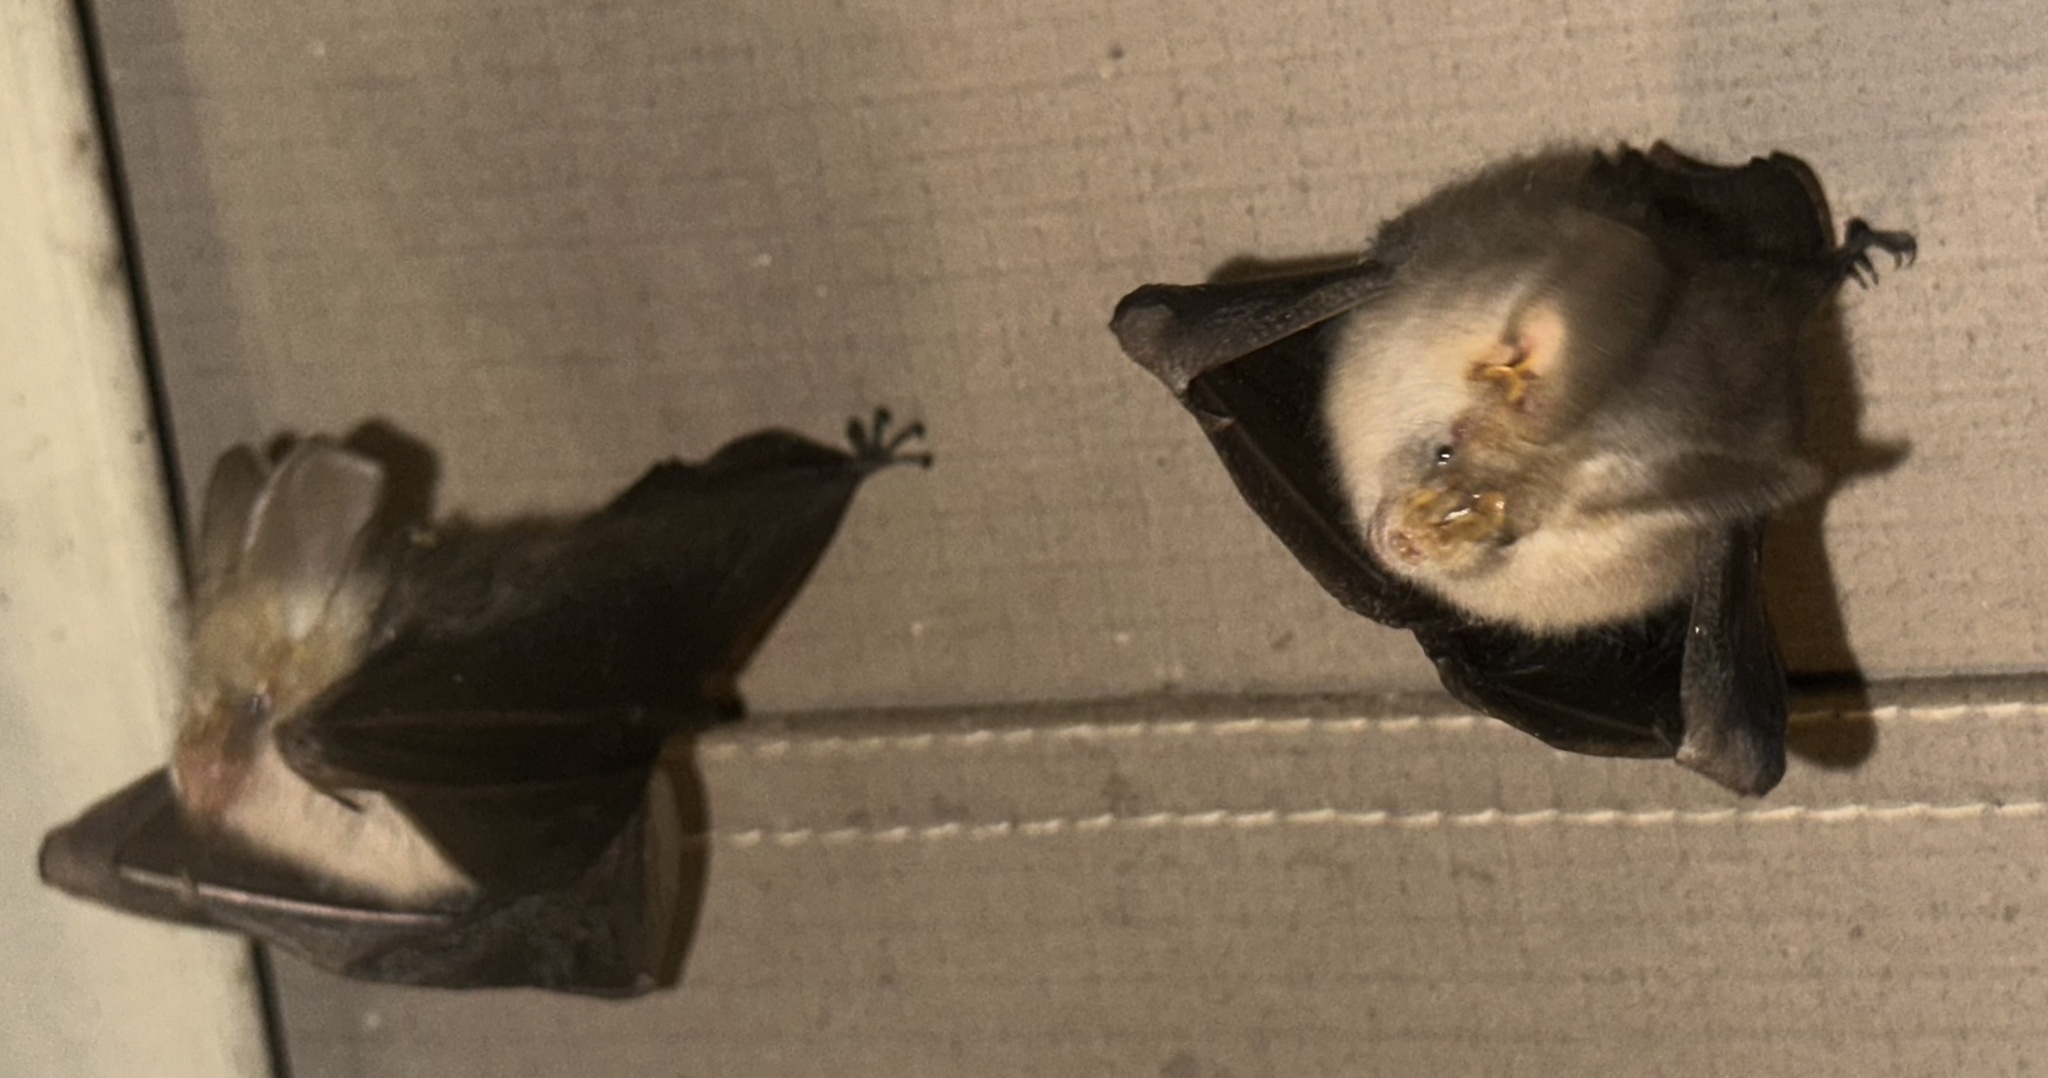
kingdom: Animalia
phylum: Chordata
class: Mammalia
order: Chiroptera
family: Nycteridae
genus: Nycteris
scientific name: Nycteris hispida
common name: Hairy slit-faced bat
